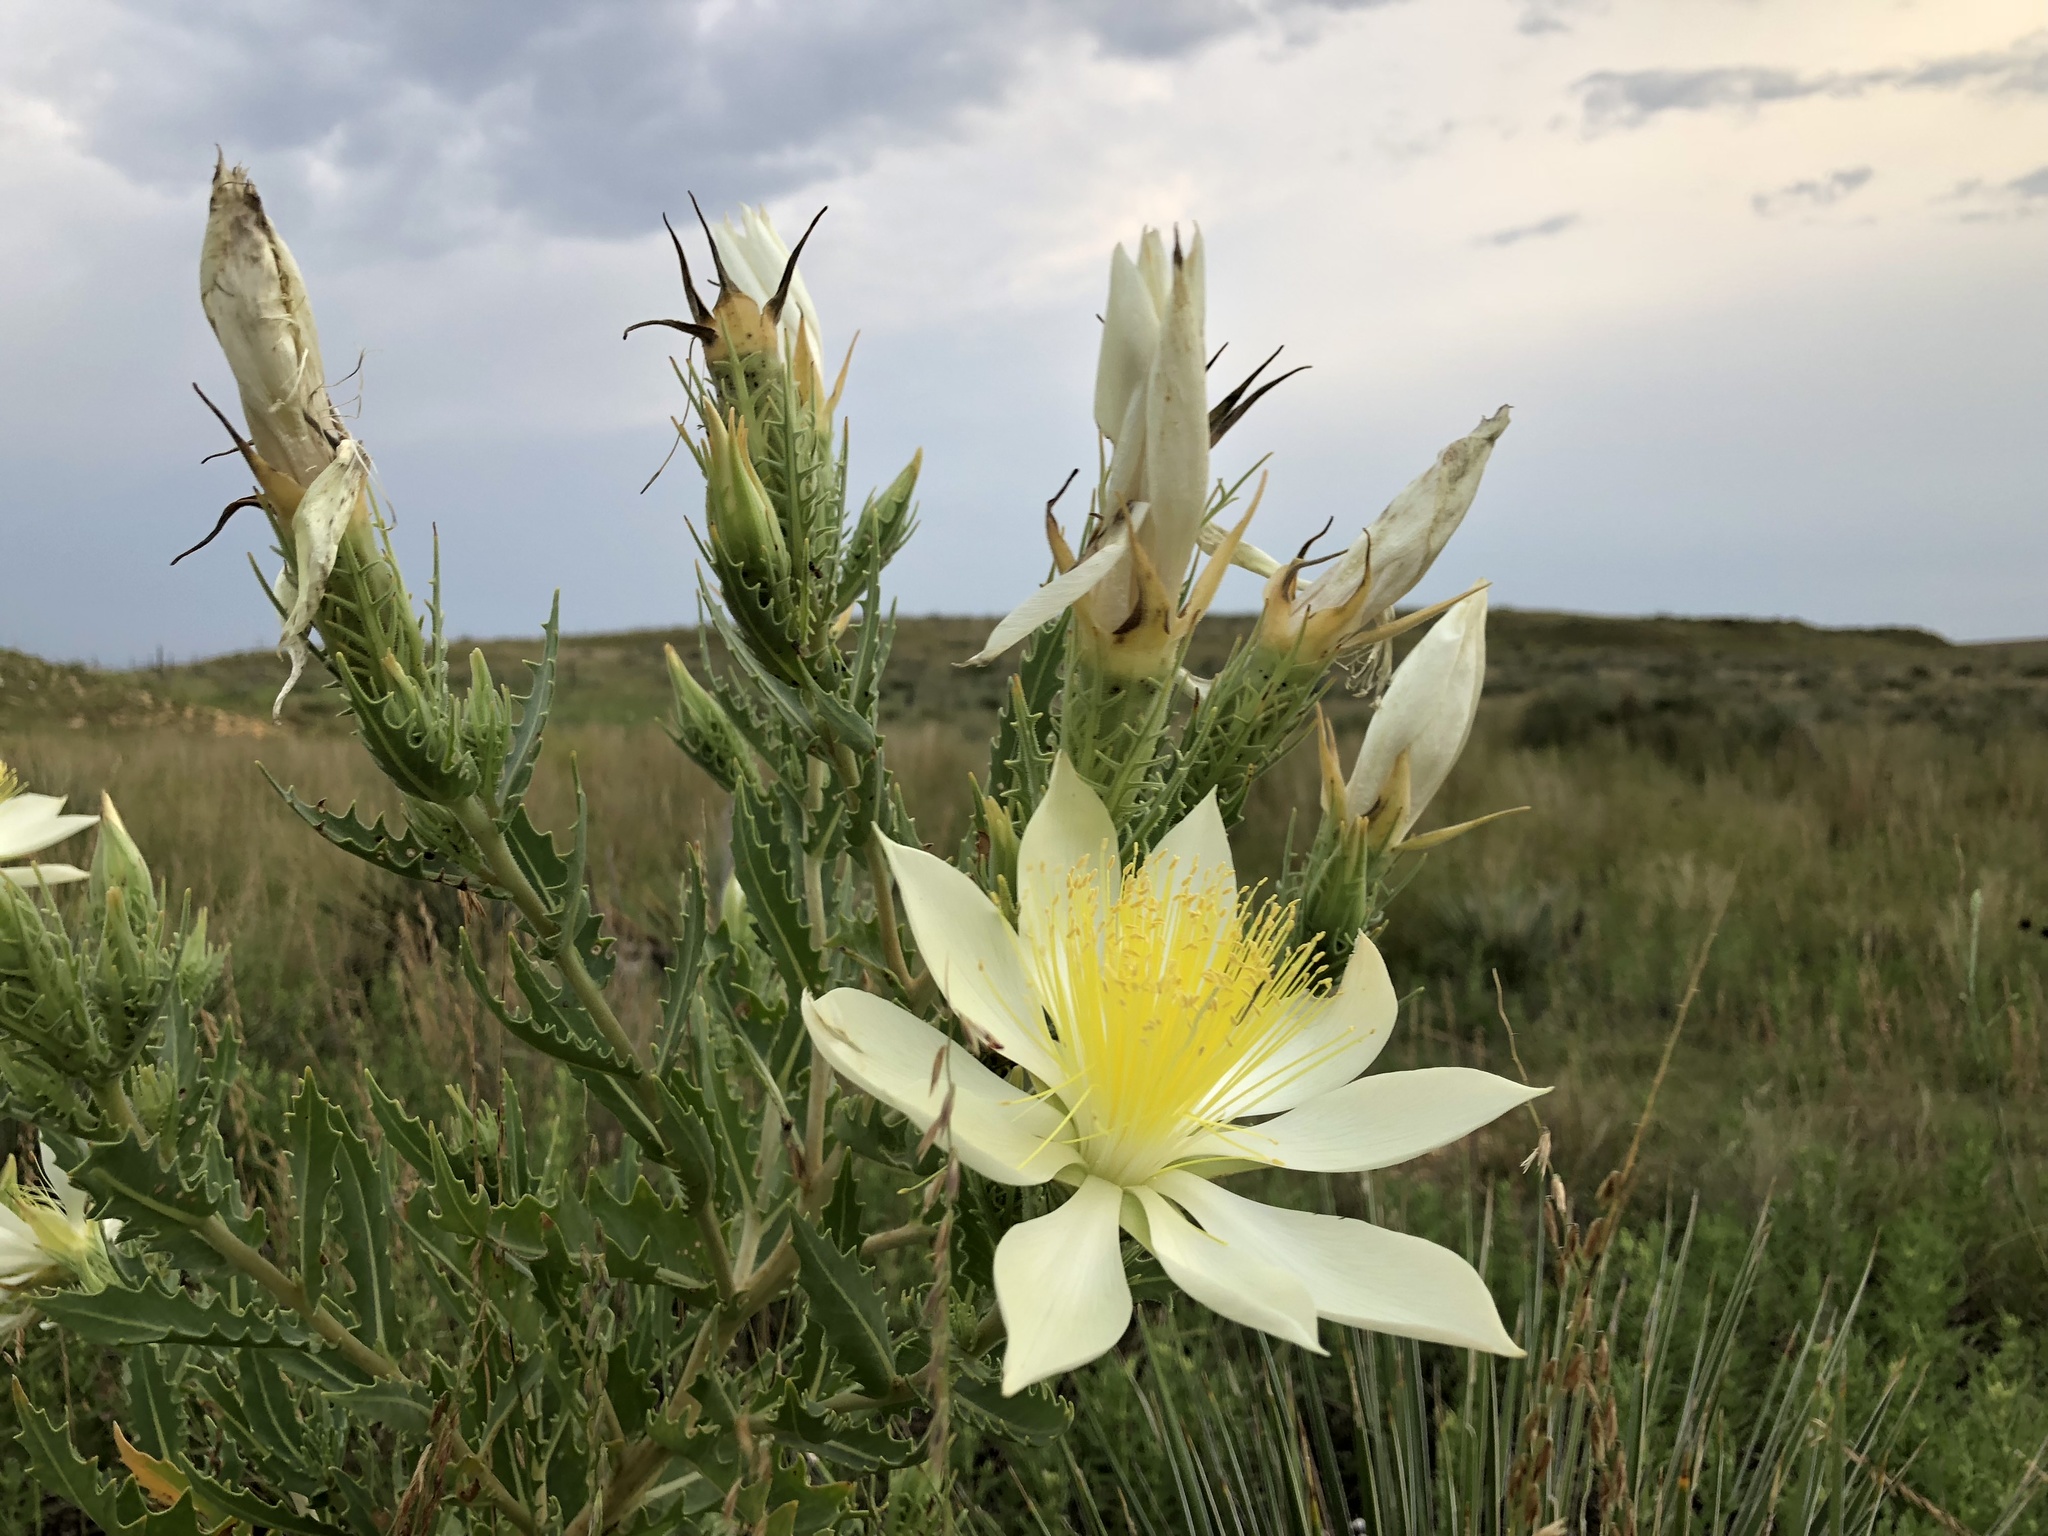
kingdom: Plantae
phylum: Tracheophyta
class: Magnoliopsida
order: Cornales
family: Loasaceae
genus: Mentzelia
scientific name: Mentzelia decapetala
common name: Gumbo-lily
